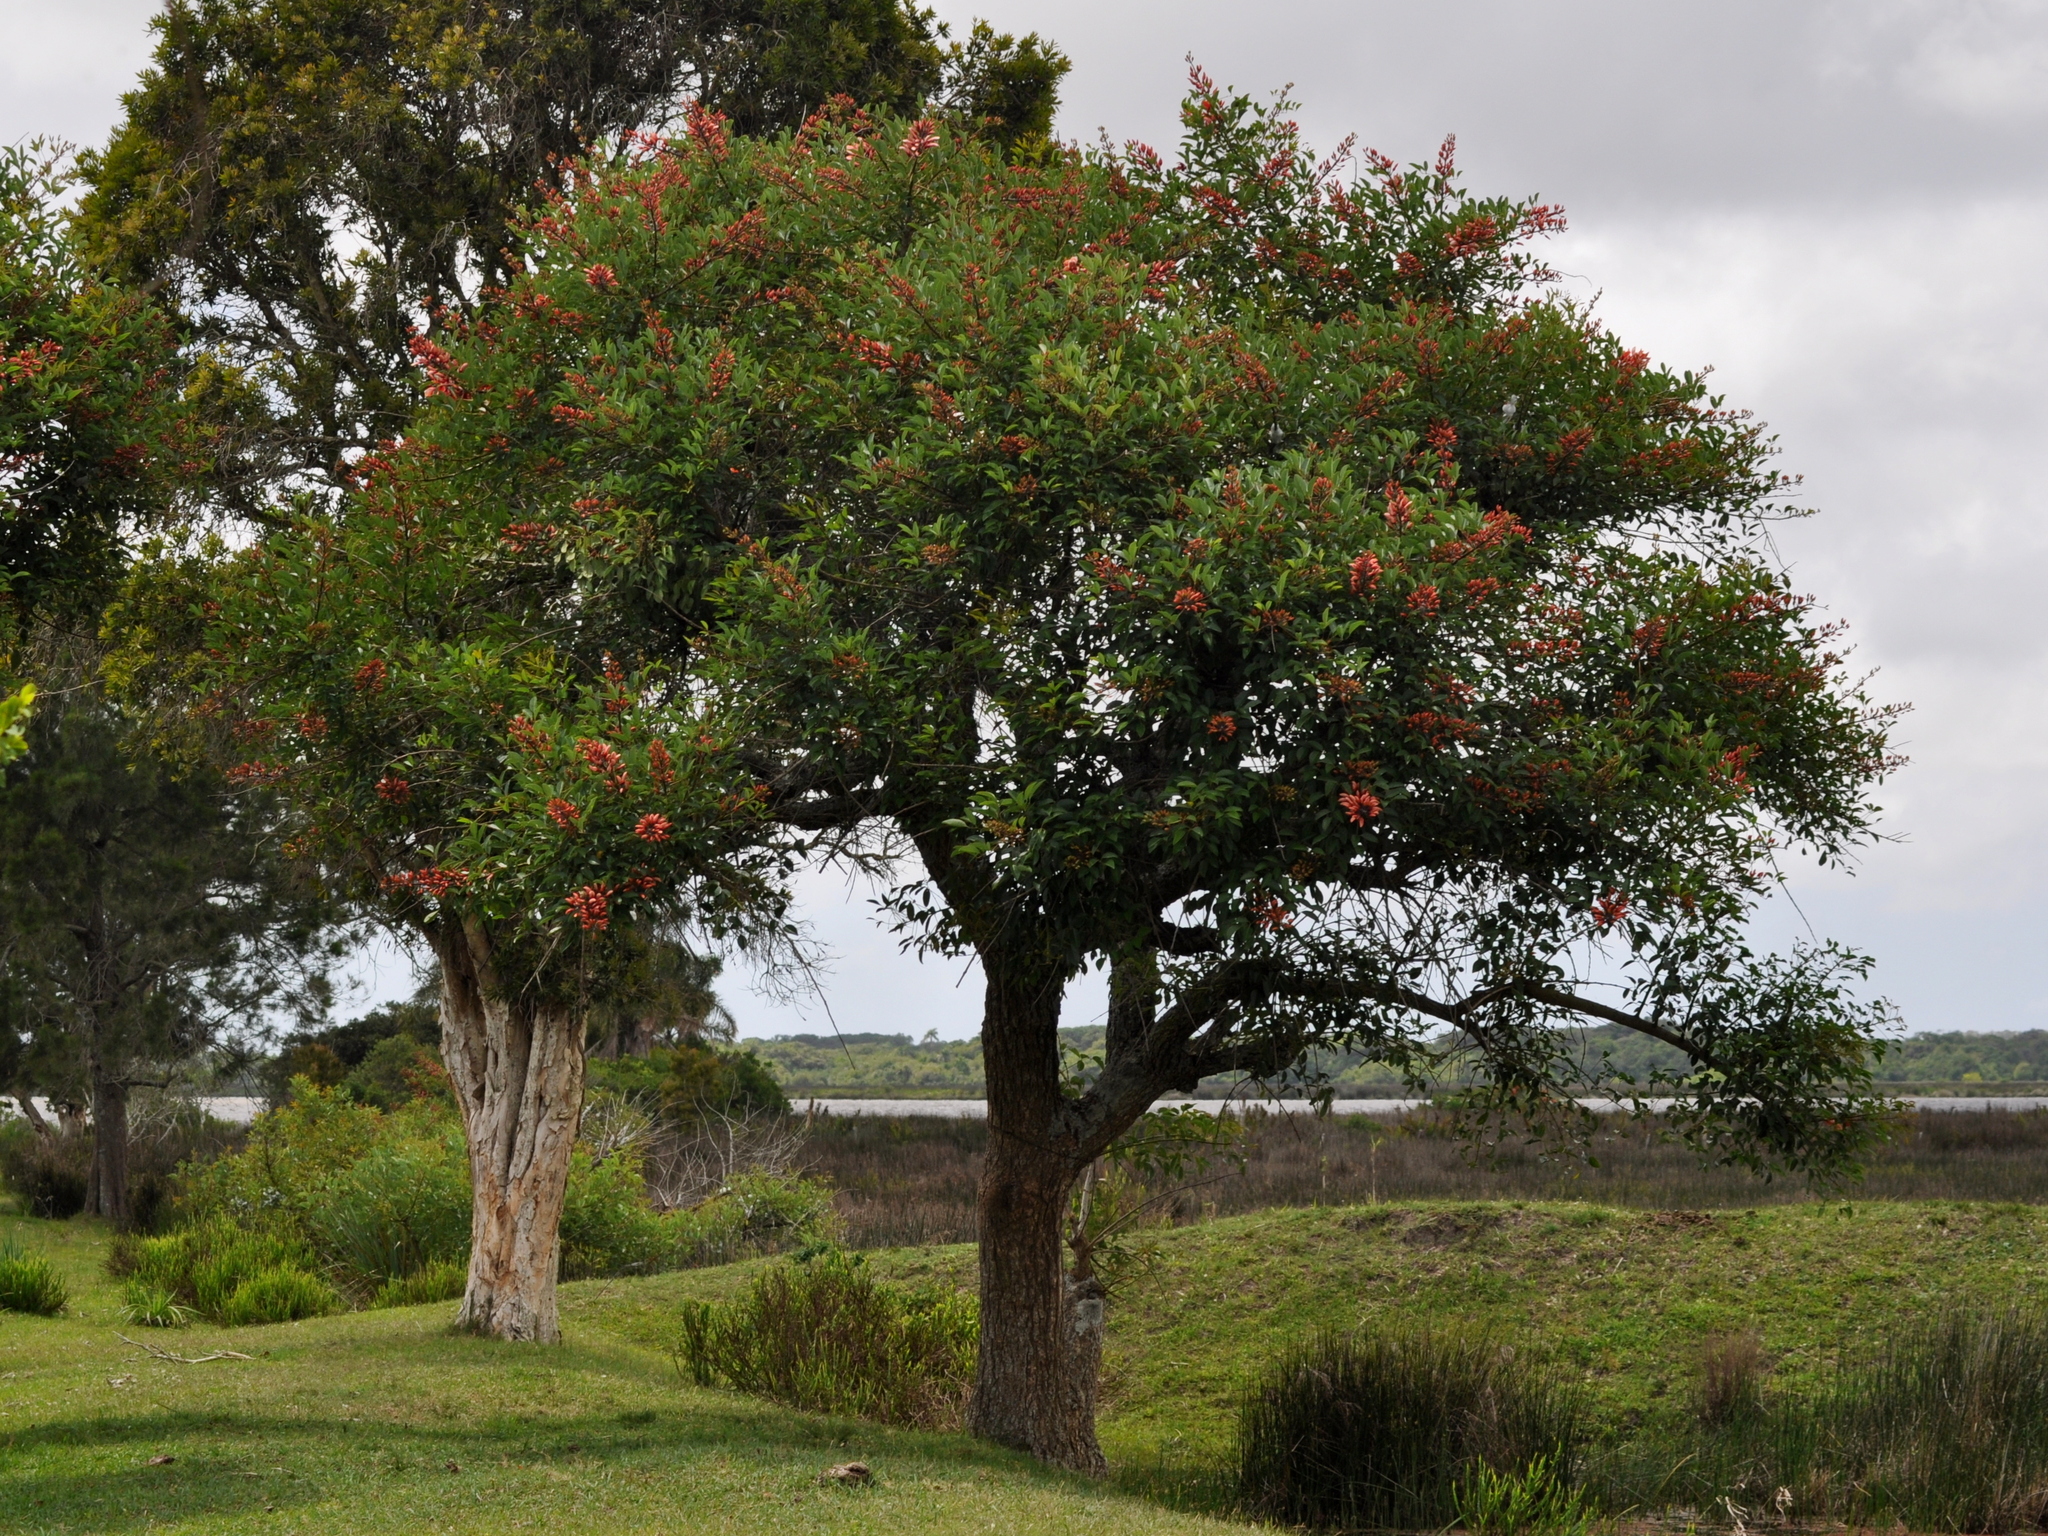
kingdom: Plantae
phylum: Tracheophyta
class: Magnoliopsida
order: Fabales
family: Fabaceae
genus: Erythrina
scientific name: Erythrina crista-galli
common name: Cockspur coral tree
